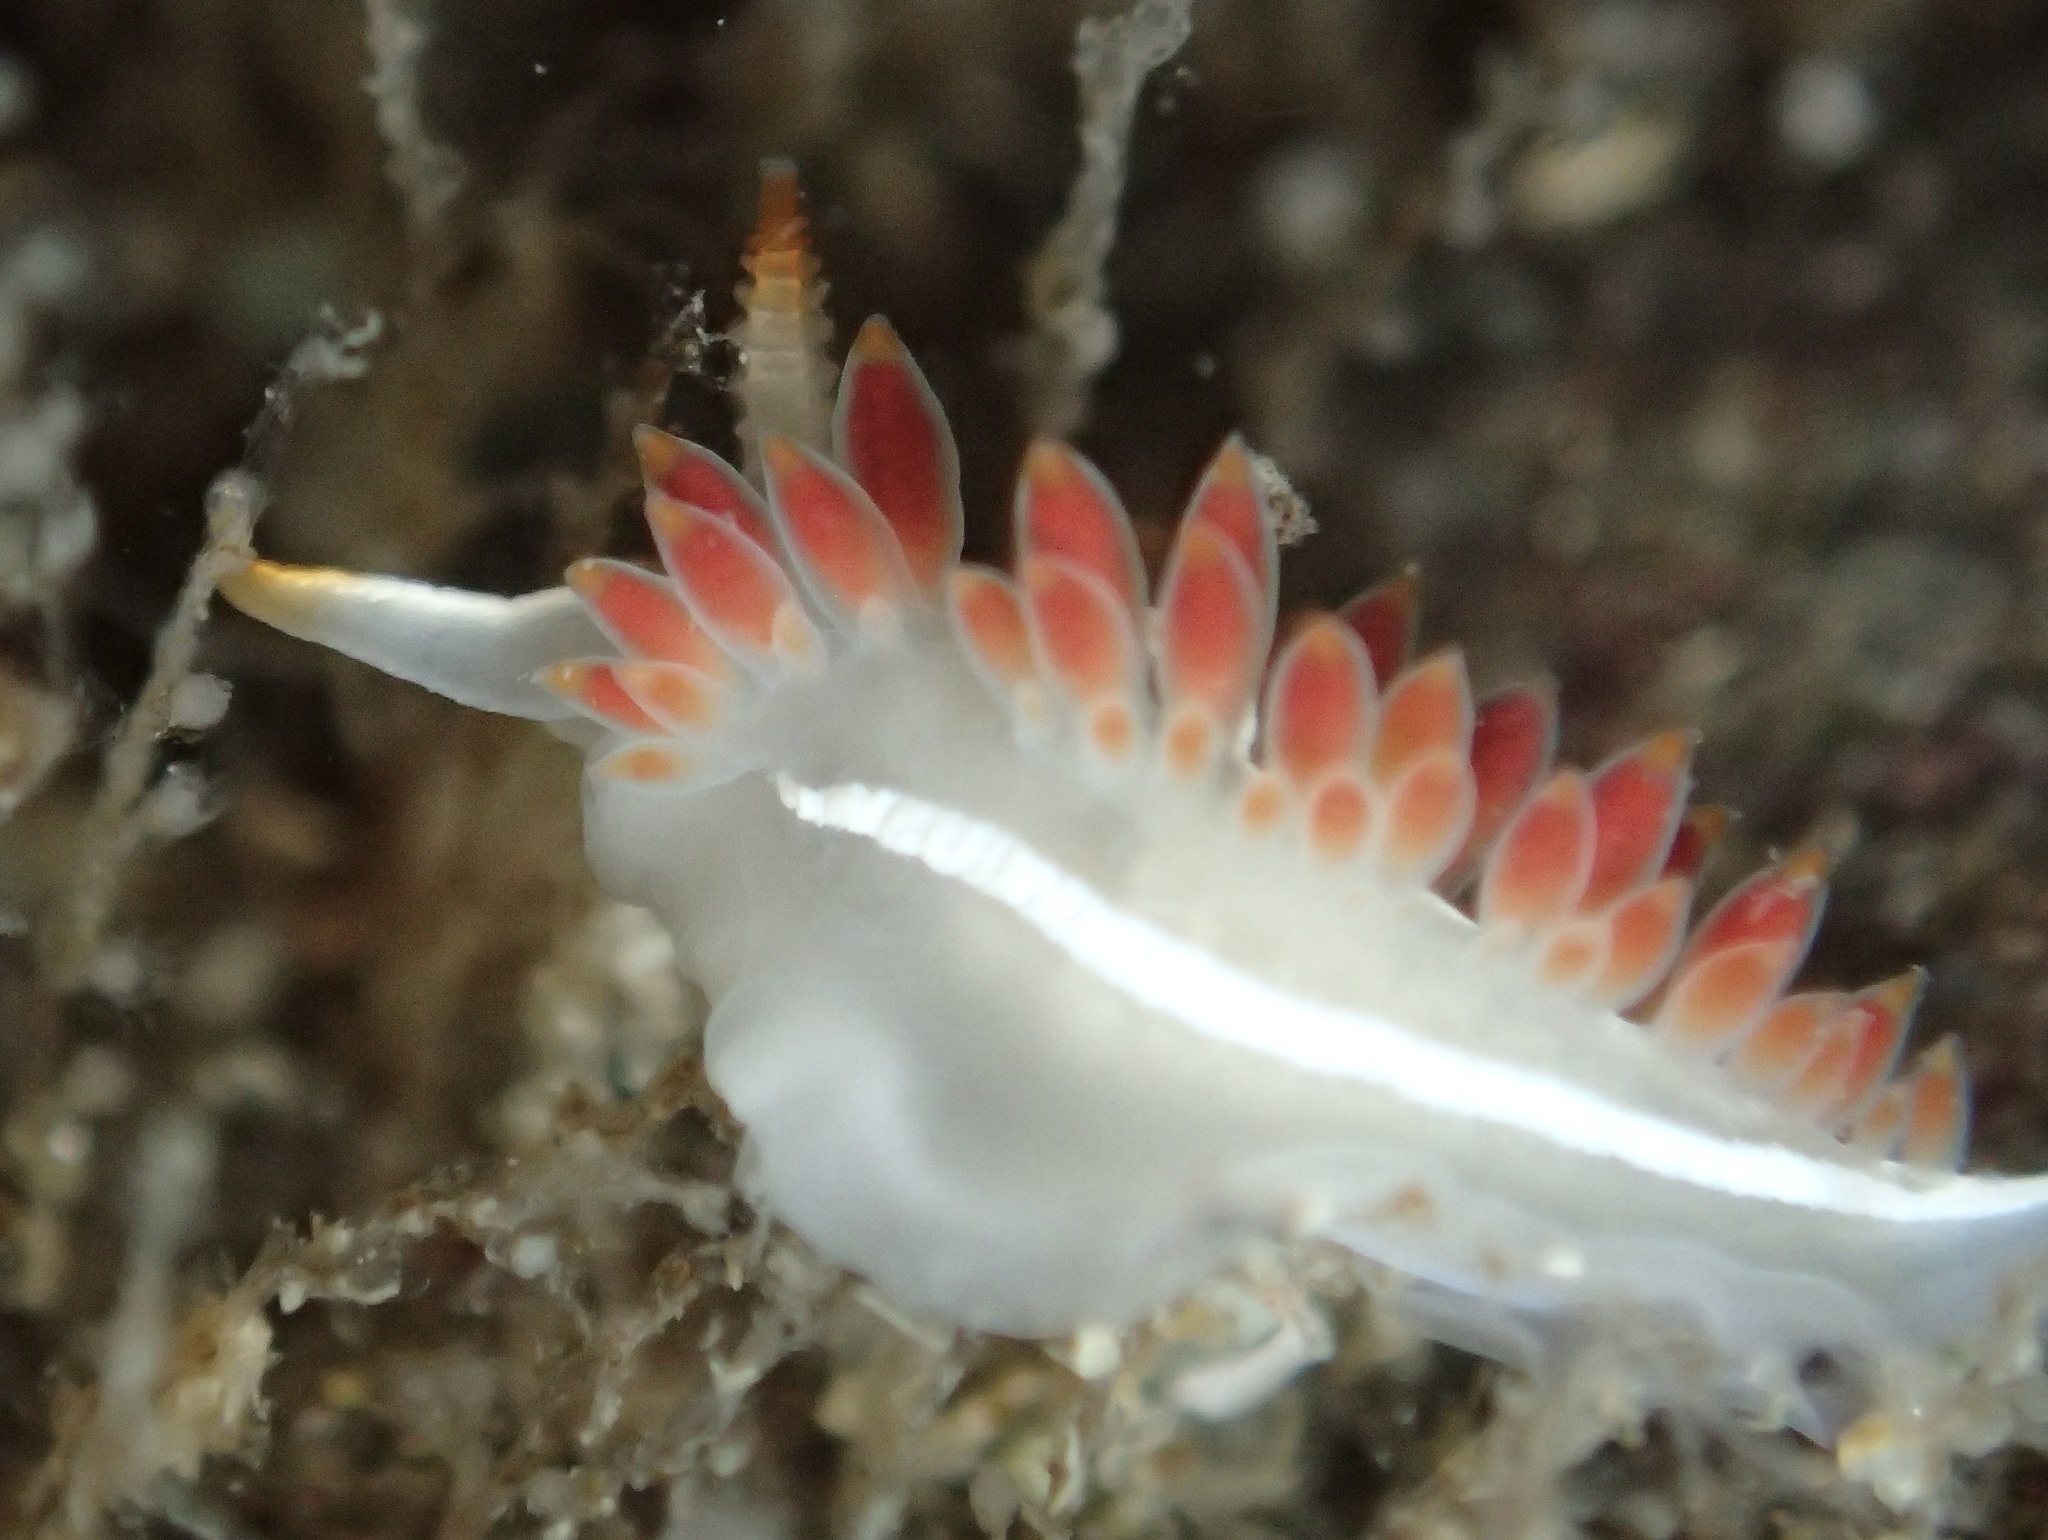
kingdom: Animalia
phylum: Mollusca
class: Gastropoda
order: Nudibranchia
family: Coryphellidae
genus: Coryphella
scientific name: Coryphella trilineata
